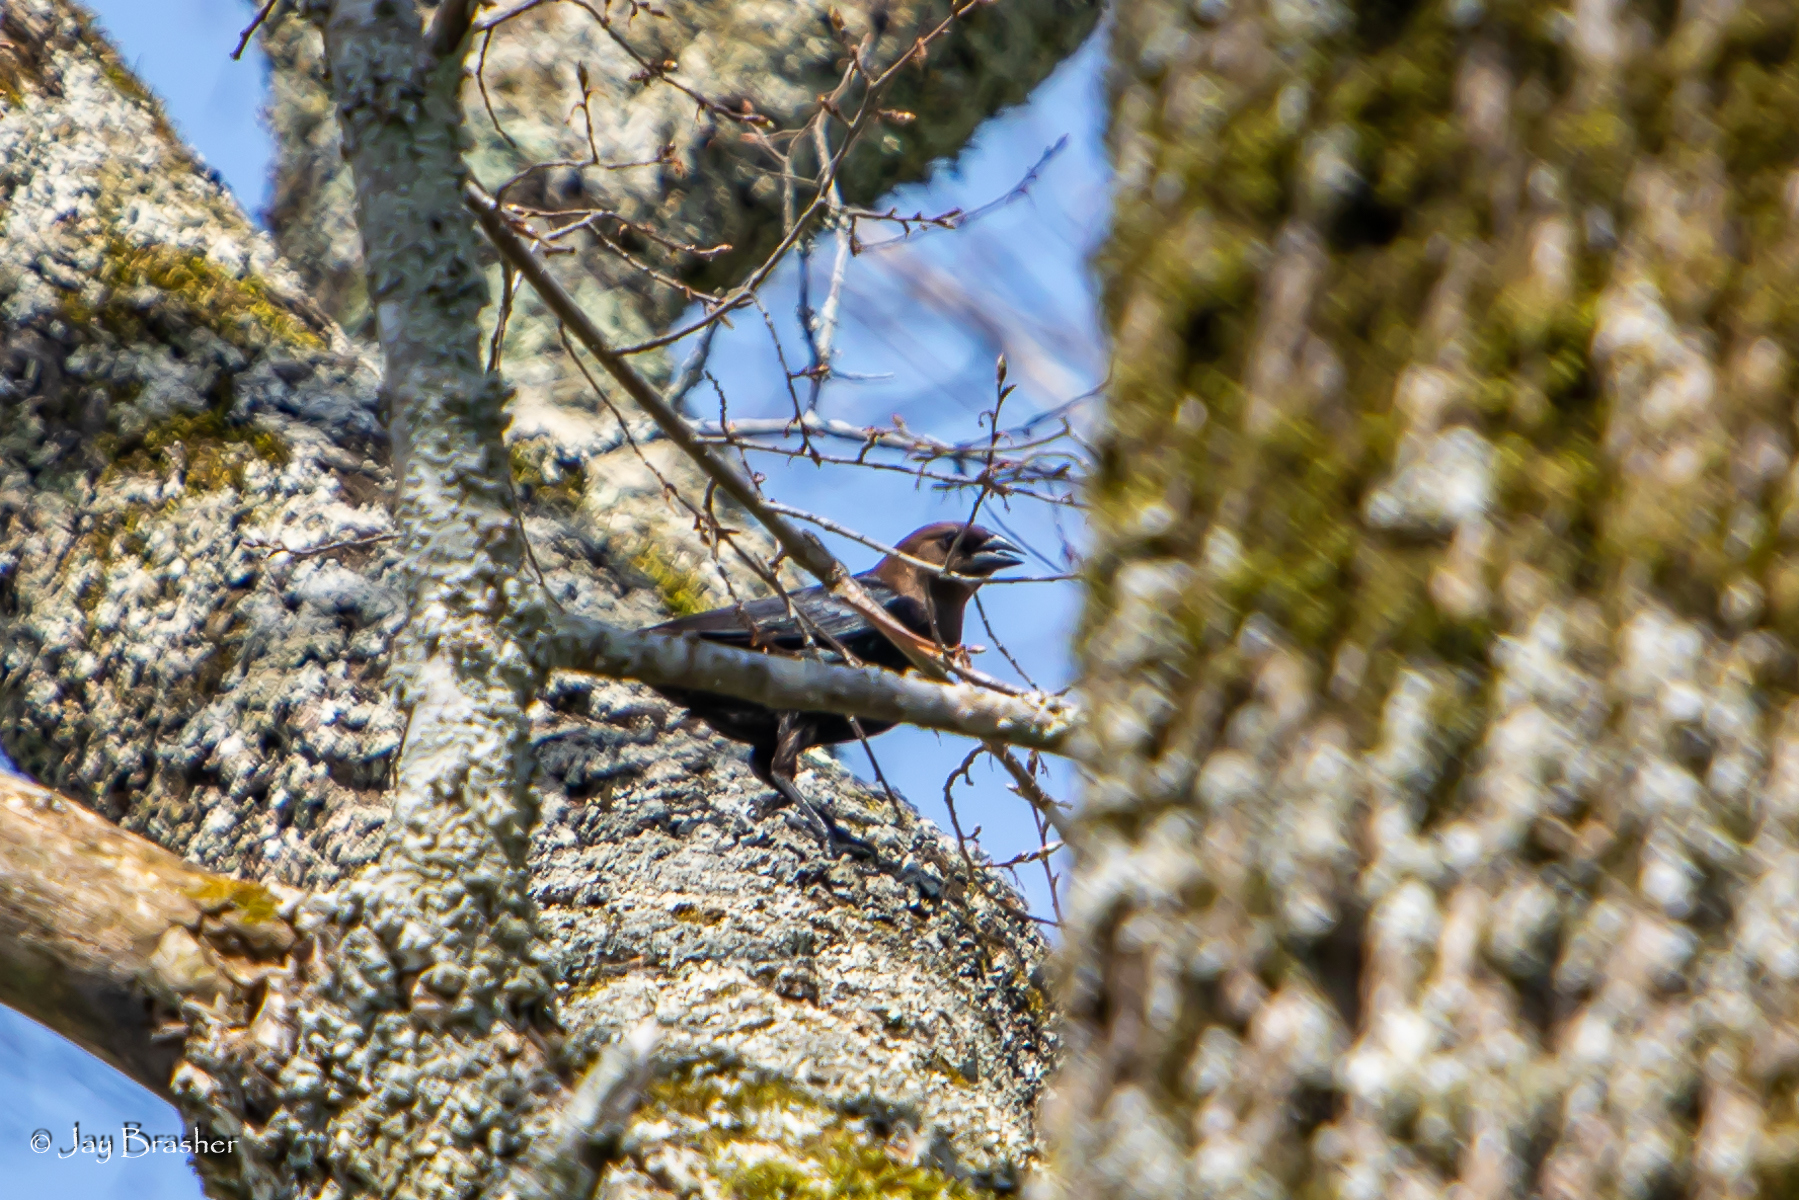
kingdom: Animalia
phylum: Chordata
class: Aves
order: Passeriformes
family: Icteridae
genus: Molothrus
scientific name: Molothrus ater
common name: Brown-headed cowbird
